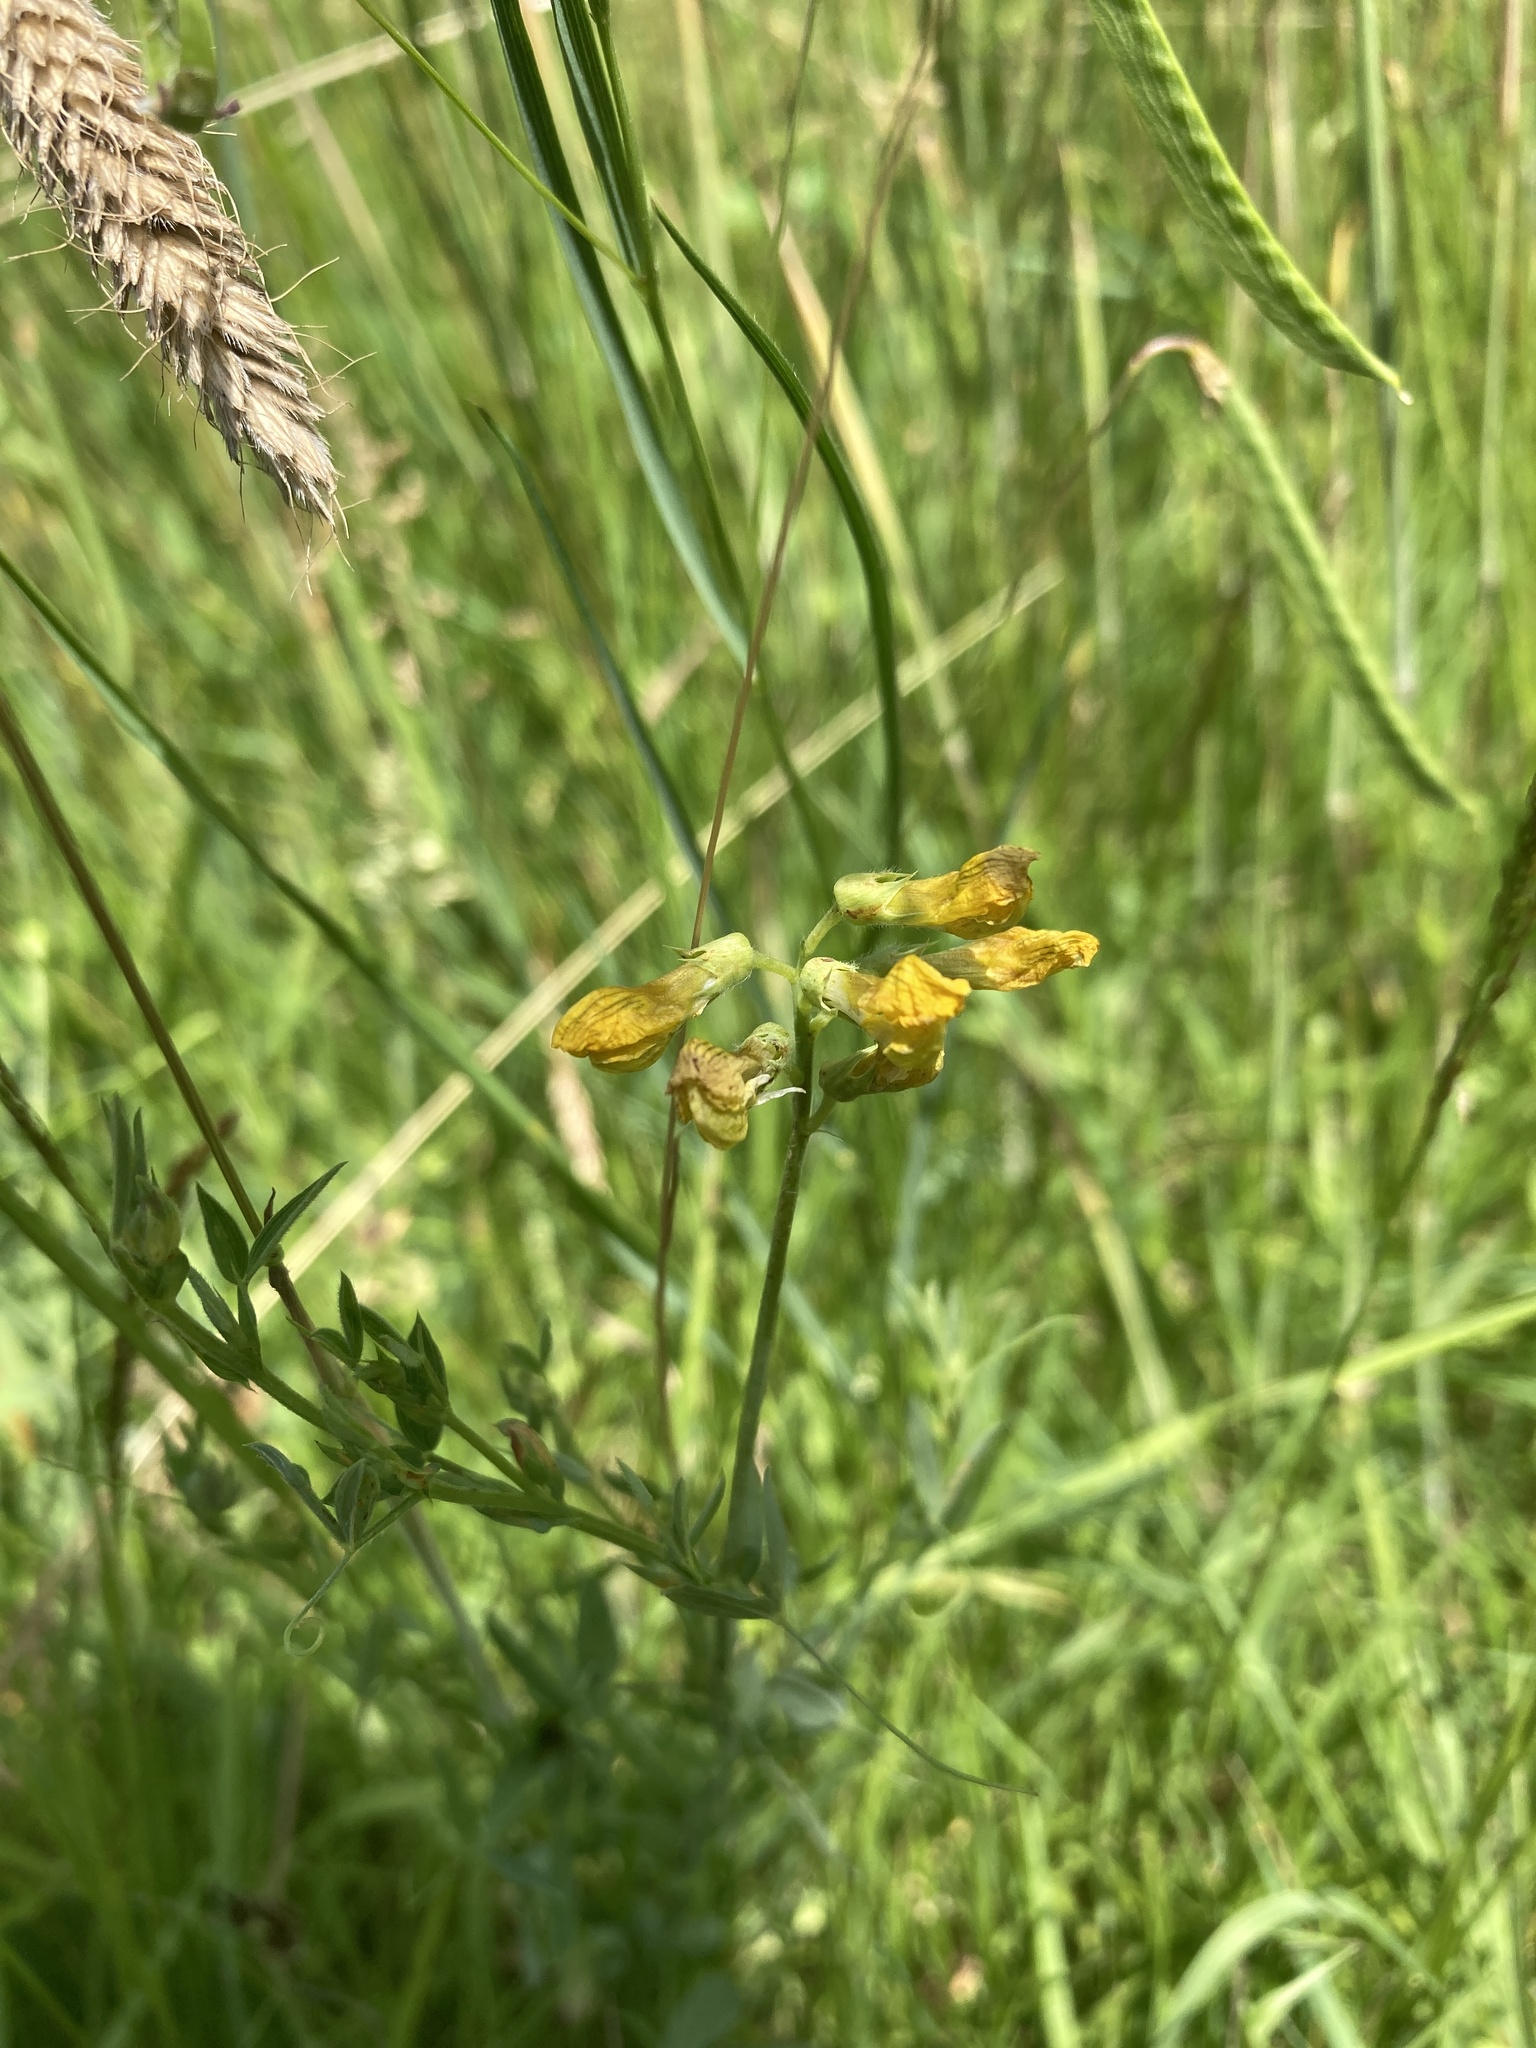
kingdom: Plantae
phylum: Tracheophyta
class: Magnoliopsida
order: Fabales
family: Fabaceae
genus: Lathyrus
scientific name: Lathyrus pratensis
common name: Meadow vetchling
